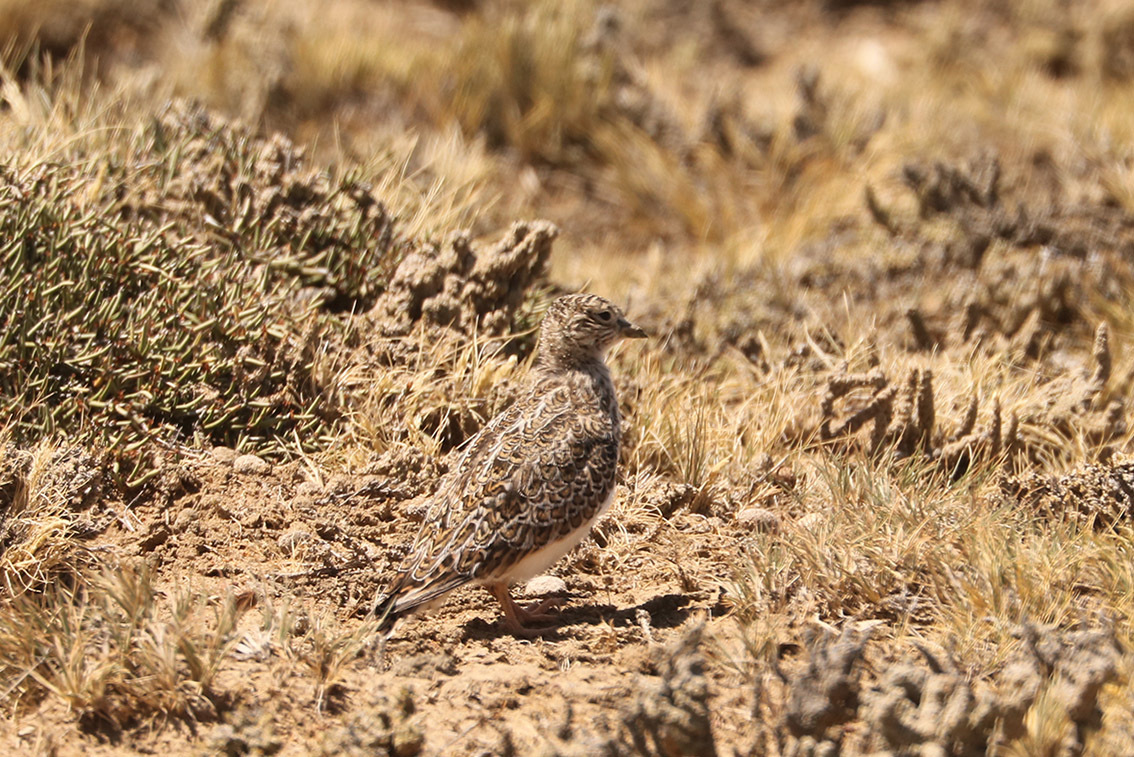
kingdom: Animalia
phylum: Chordata
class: Aves
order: Charadriiformes
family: Thinocoridae
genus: Thinocorus
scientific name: Thinocorus rumicivorus
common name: Least seedsnipe
